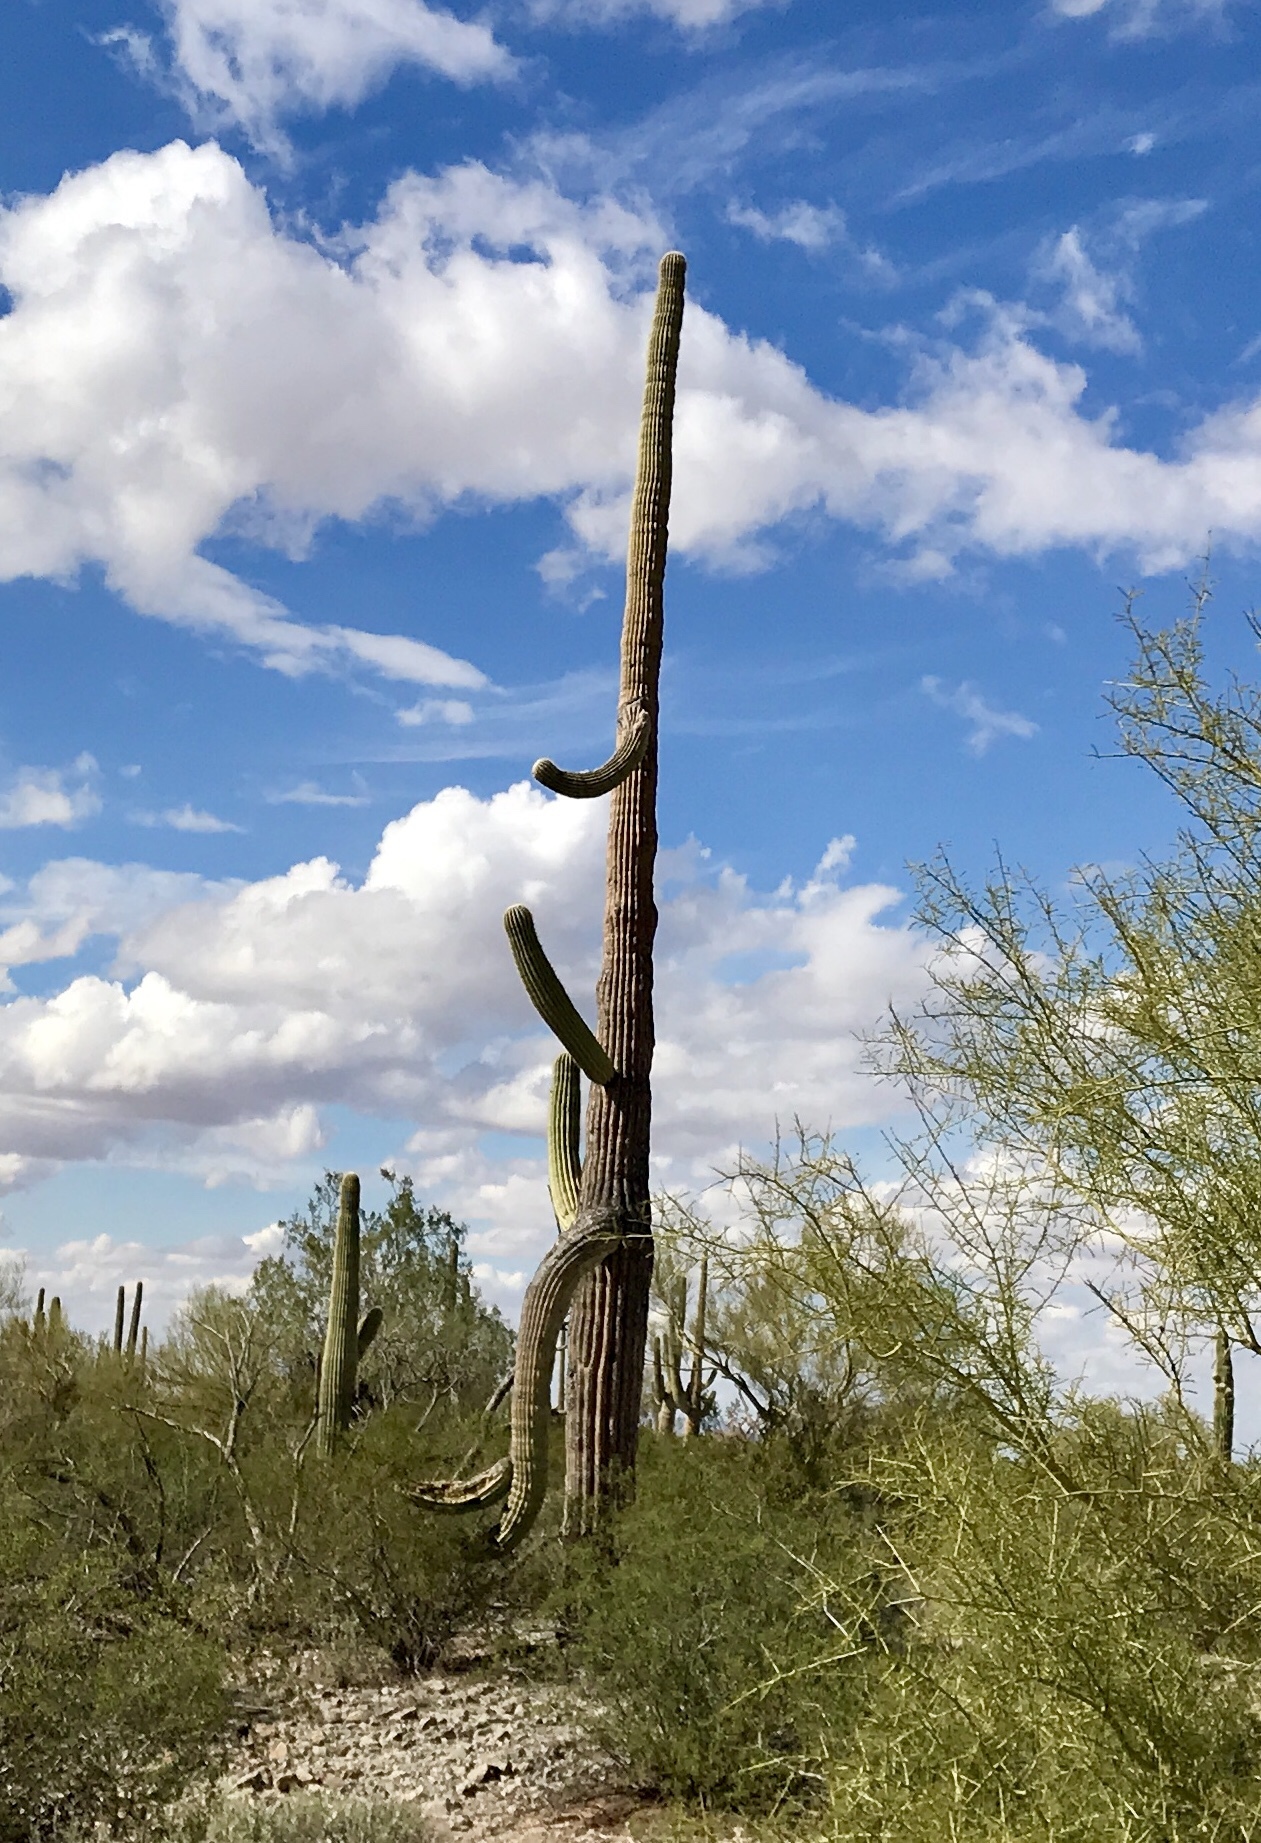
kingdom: Plantae
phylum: Tracheophyta
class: Magnoliopsida
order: Caryophyllales
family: Cactaceae
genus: Carnegiea
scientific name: Carnegiea gigantea
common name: Saguaro
